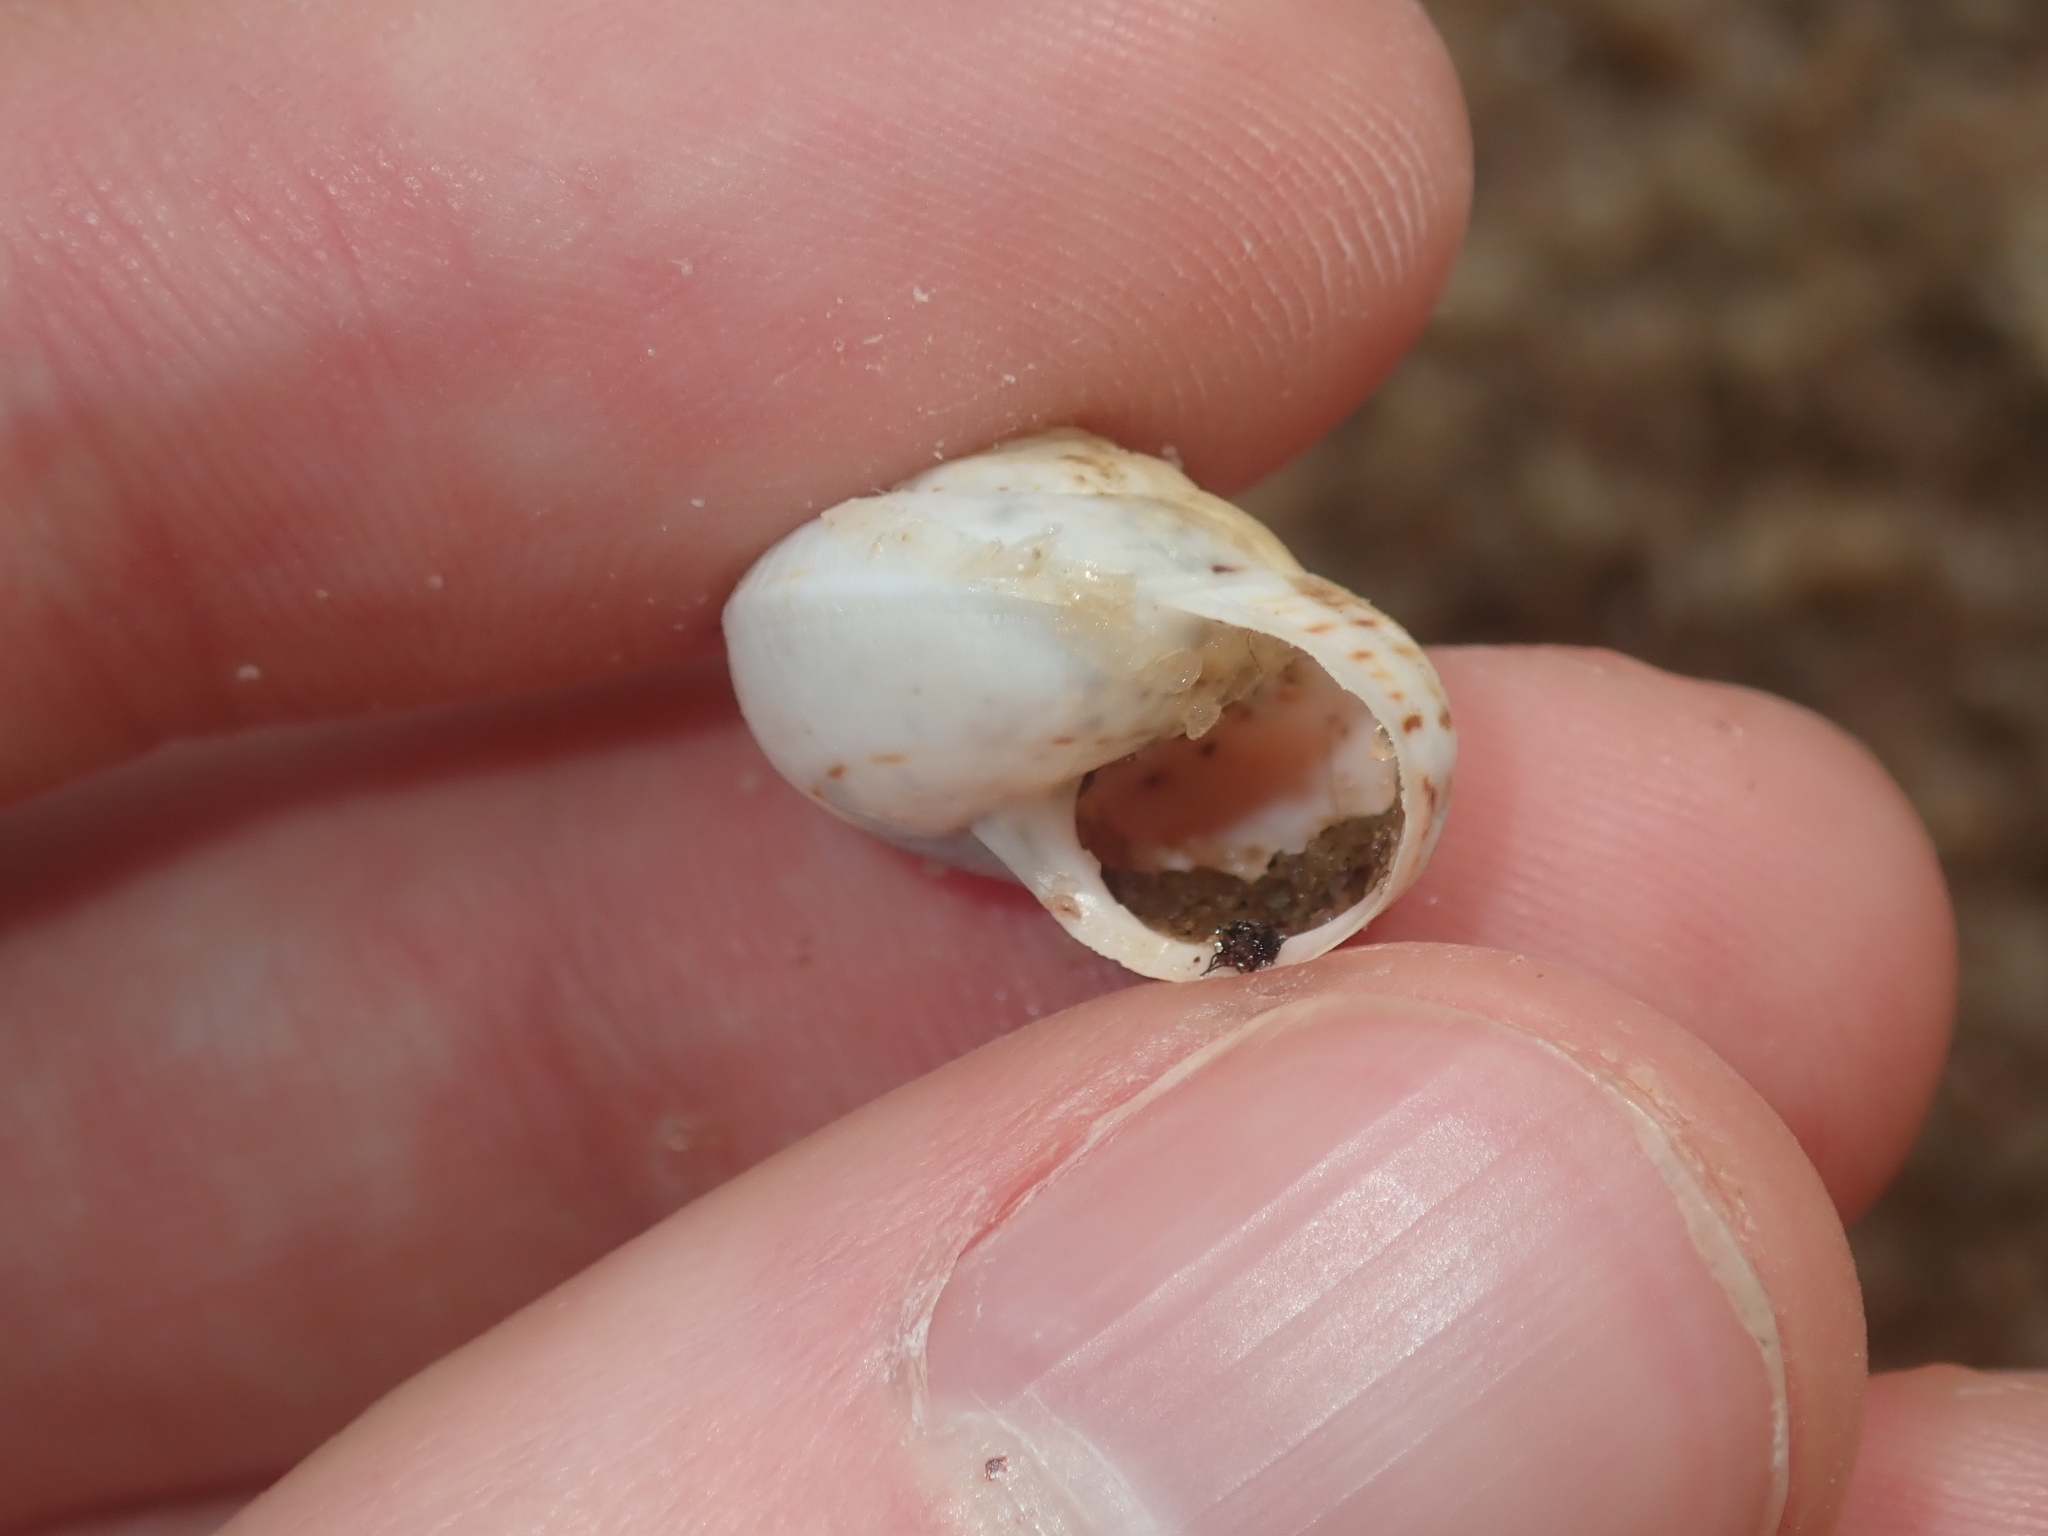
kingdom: Animalia
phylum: Mollusca
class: Gastropoda
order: Stylommatophora
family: Helicidae
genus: Theba
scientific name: Theba pisana
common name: White snail
